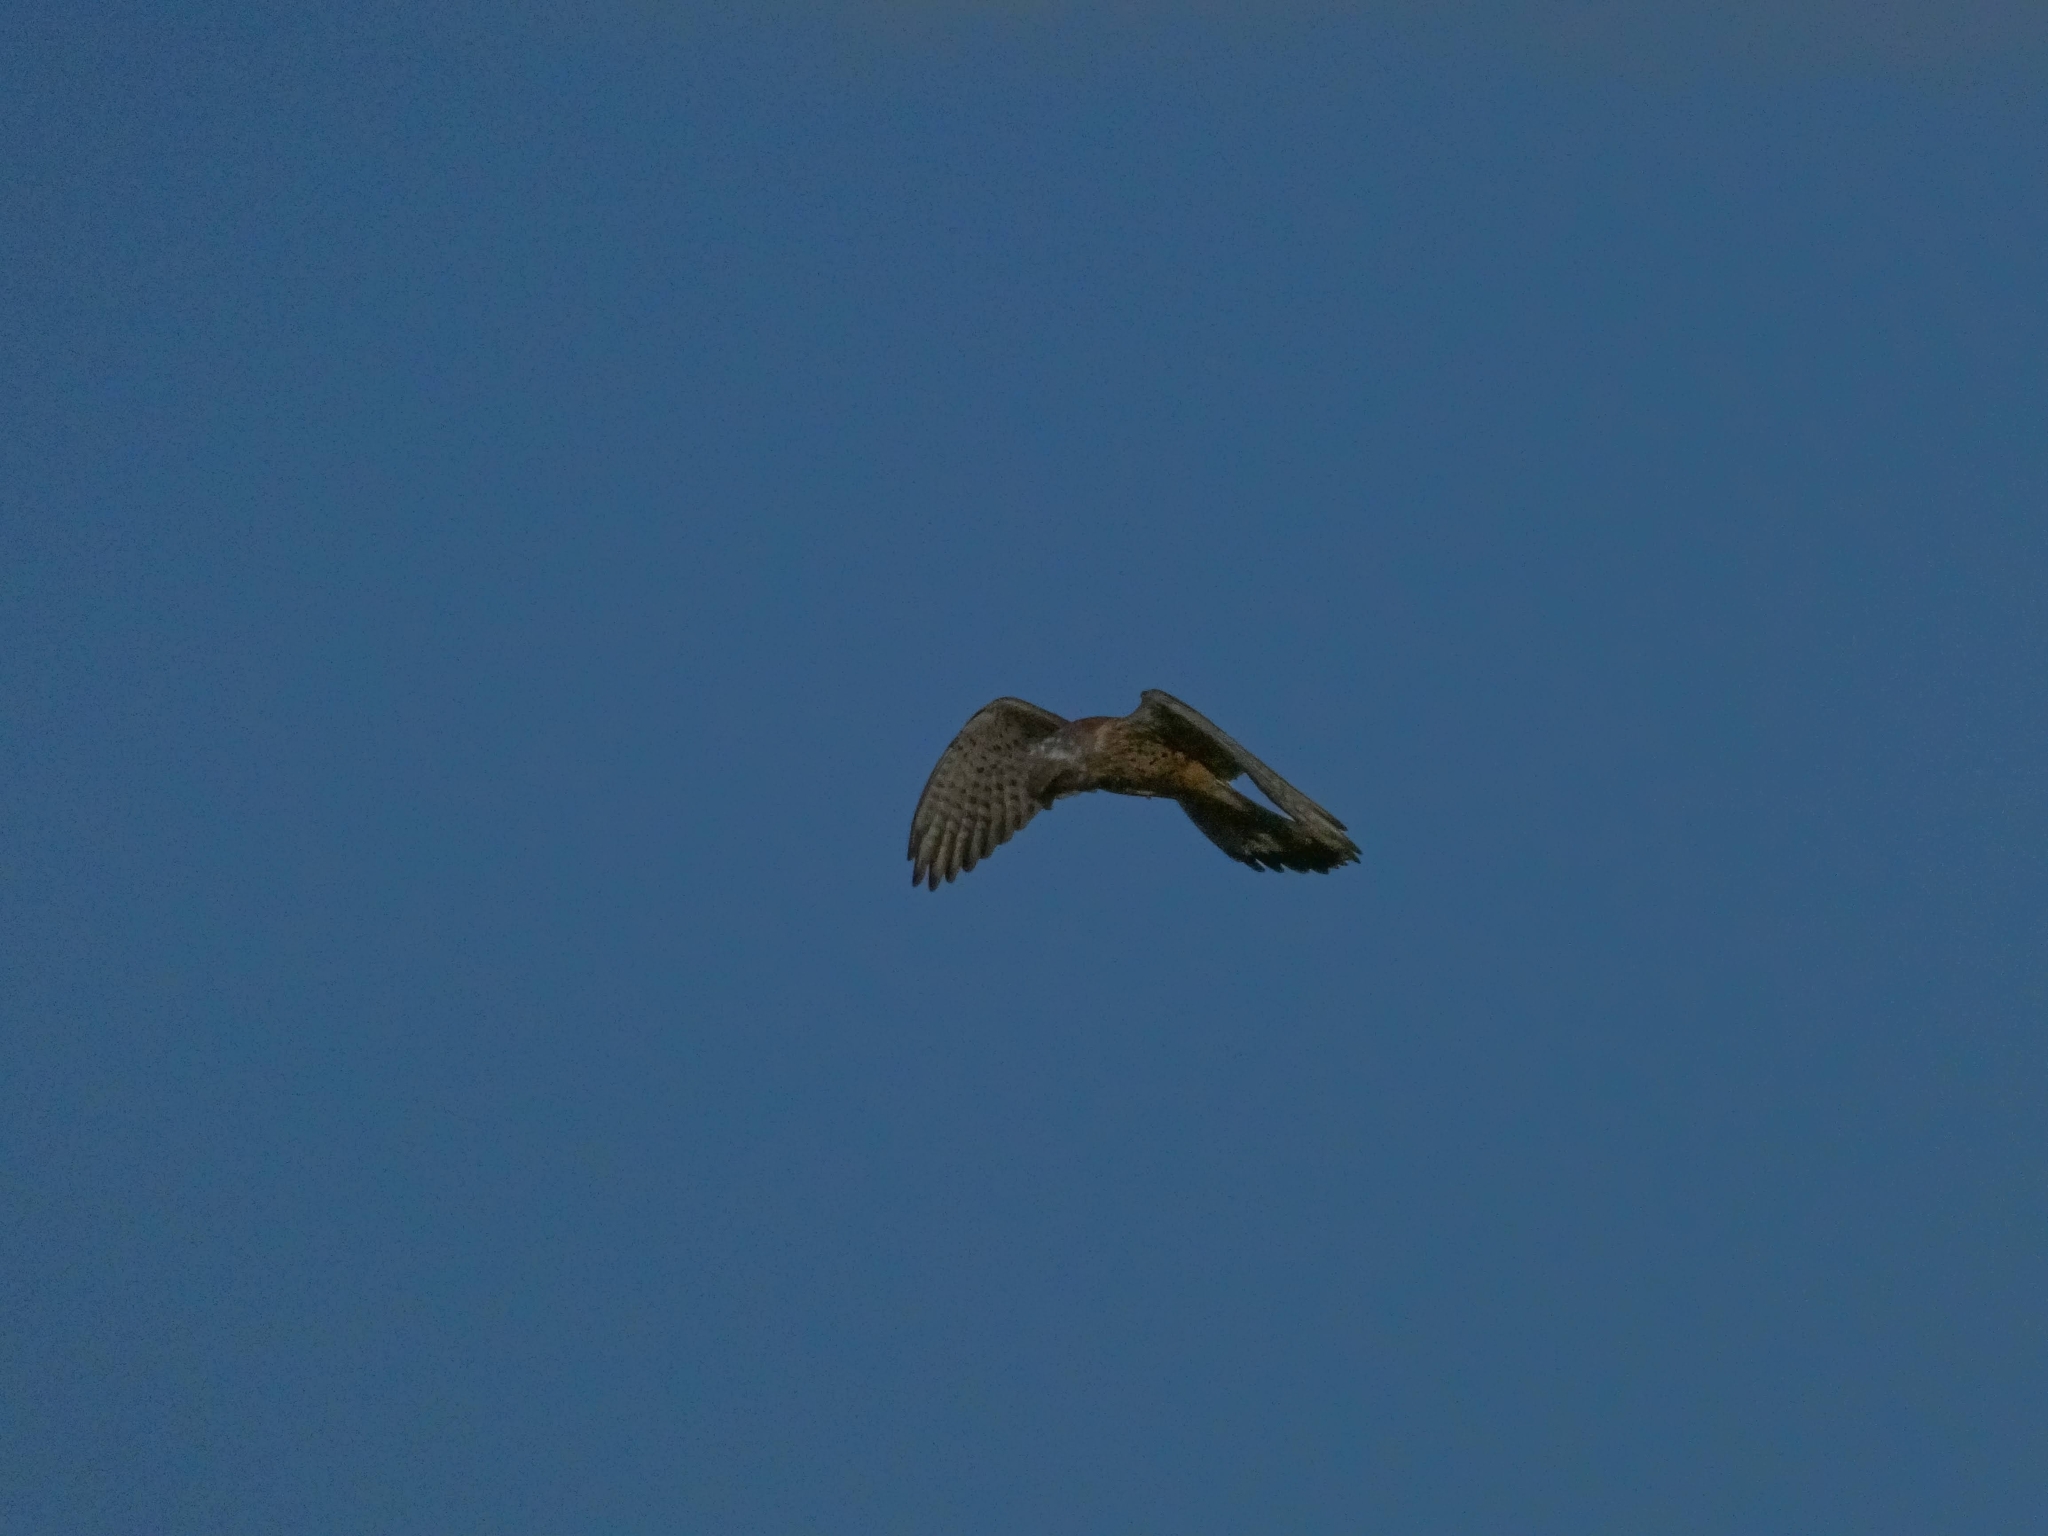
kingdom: Animalia
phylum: Chordata
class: Aves
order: Falconiformes
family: Falconidae
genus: Falco
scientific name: Falco tinnunculus
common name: Common kestrel
